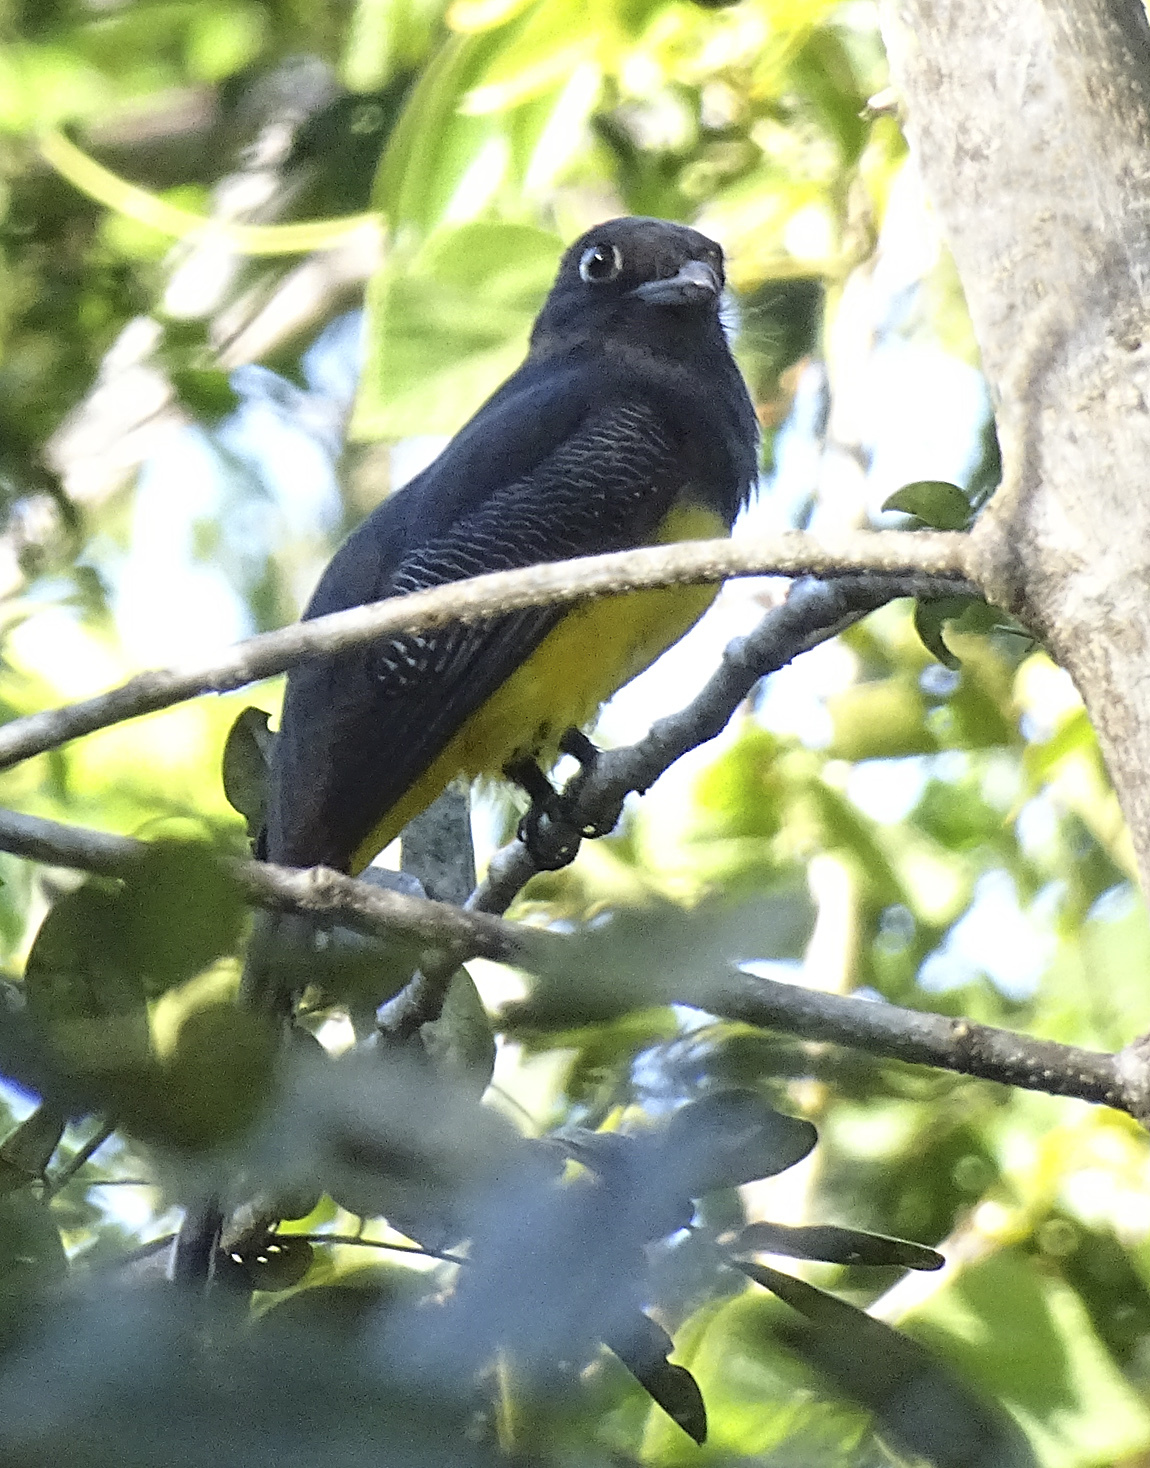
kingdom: Animalia
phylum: Chordata
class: Aves
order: Trogoniformes
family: Trogonidae
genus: Trogon
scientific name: Trogon caligatus
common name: Gartered trogon
